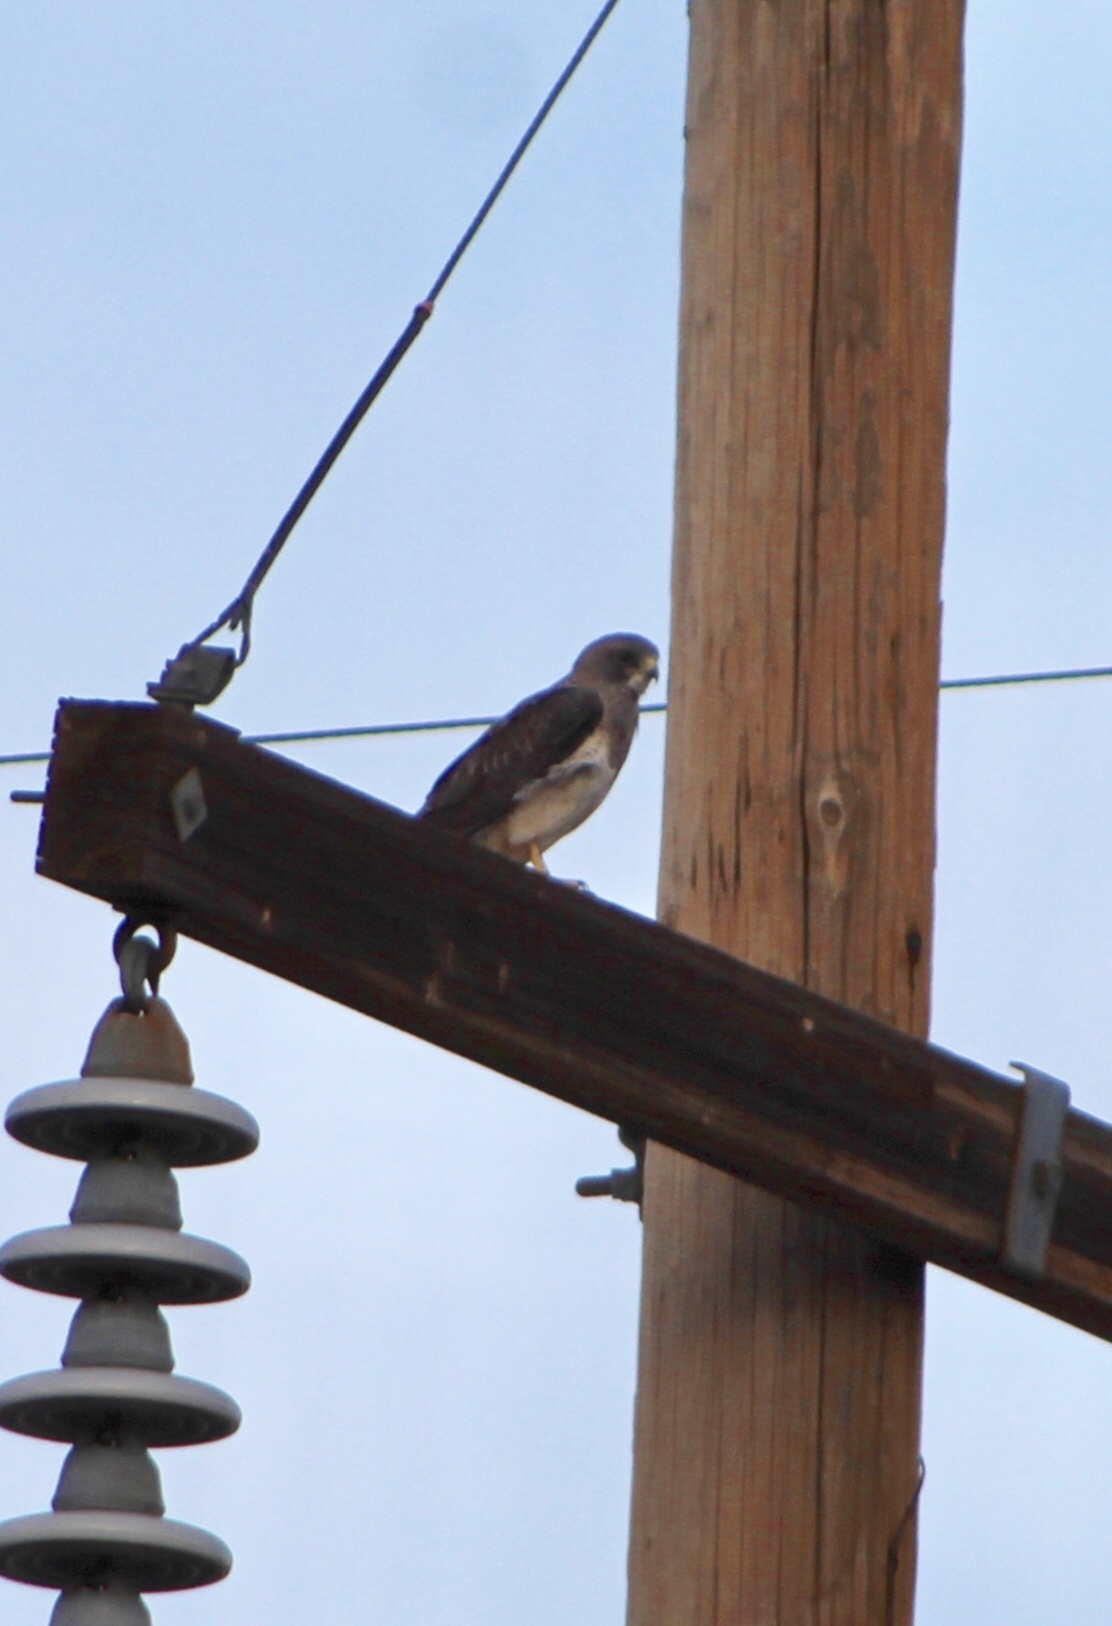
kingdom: Animalia
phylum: Chordata
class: Aves
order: Accipitriformes
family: Accipitridae
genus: Buteo
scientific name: Buteo swainsoni
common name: Swainson's hawk
